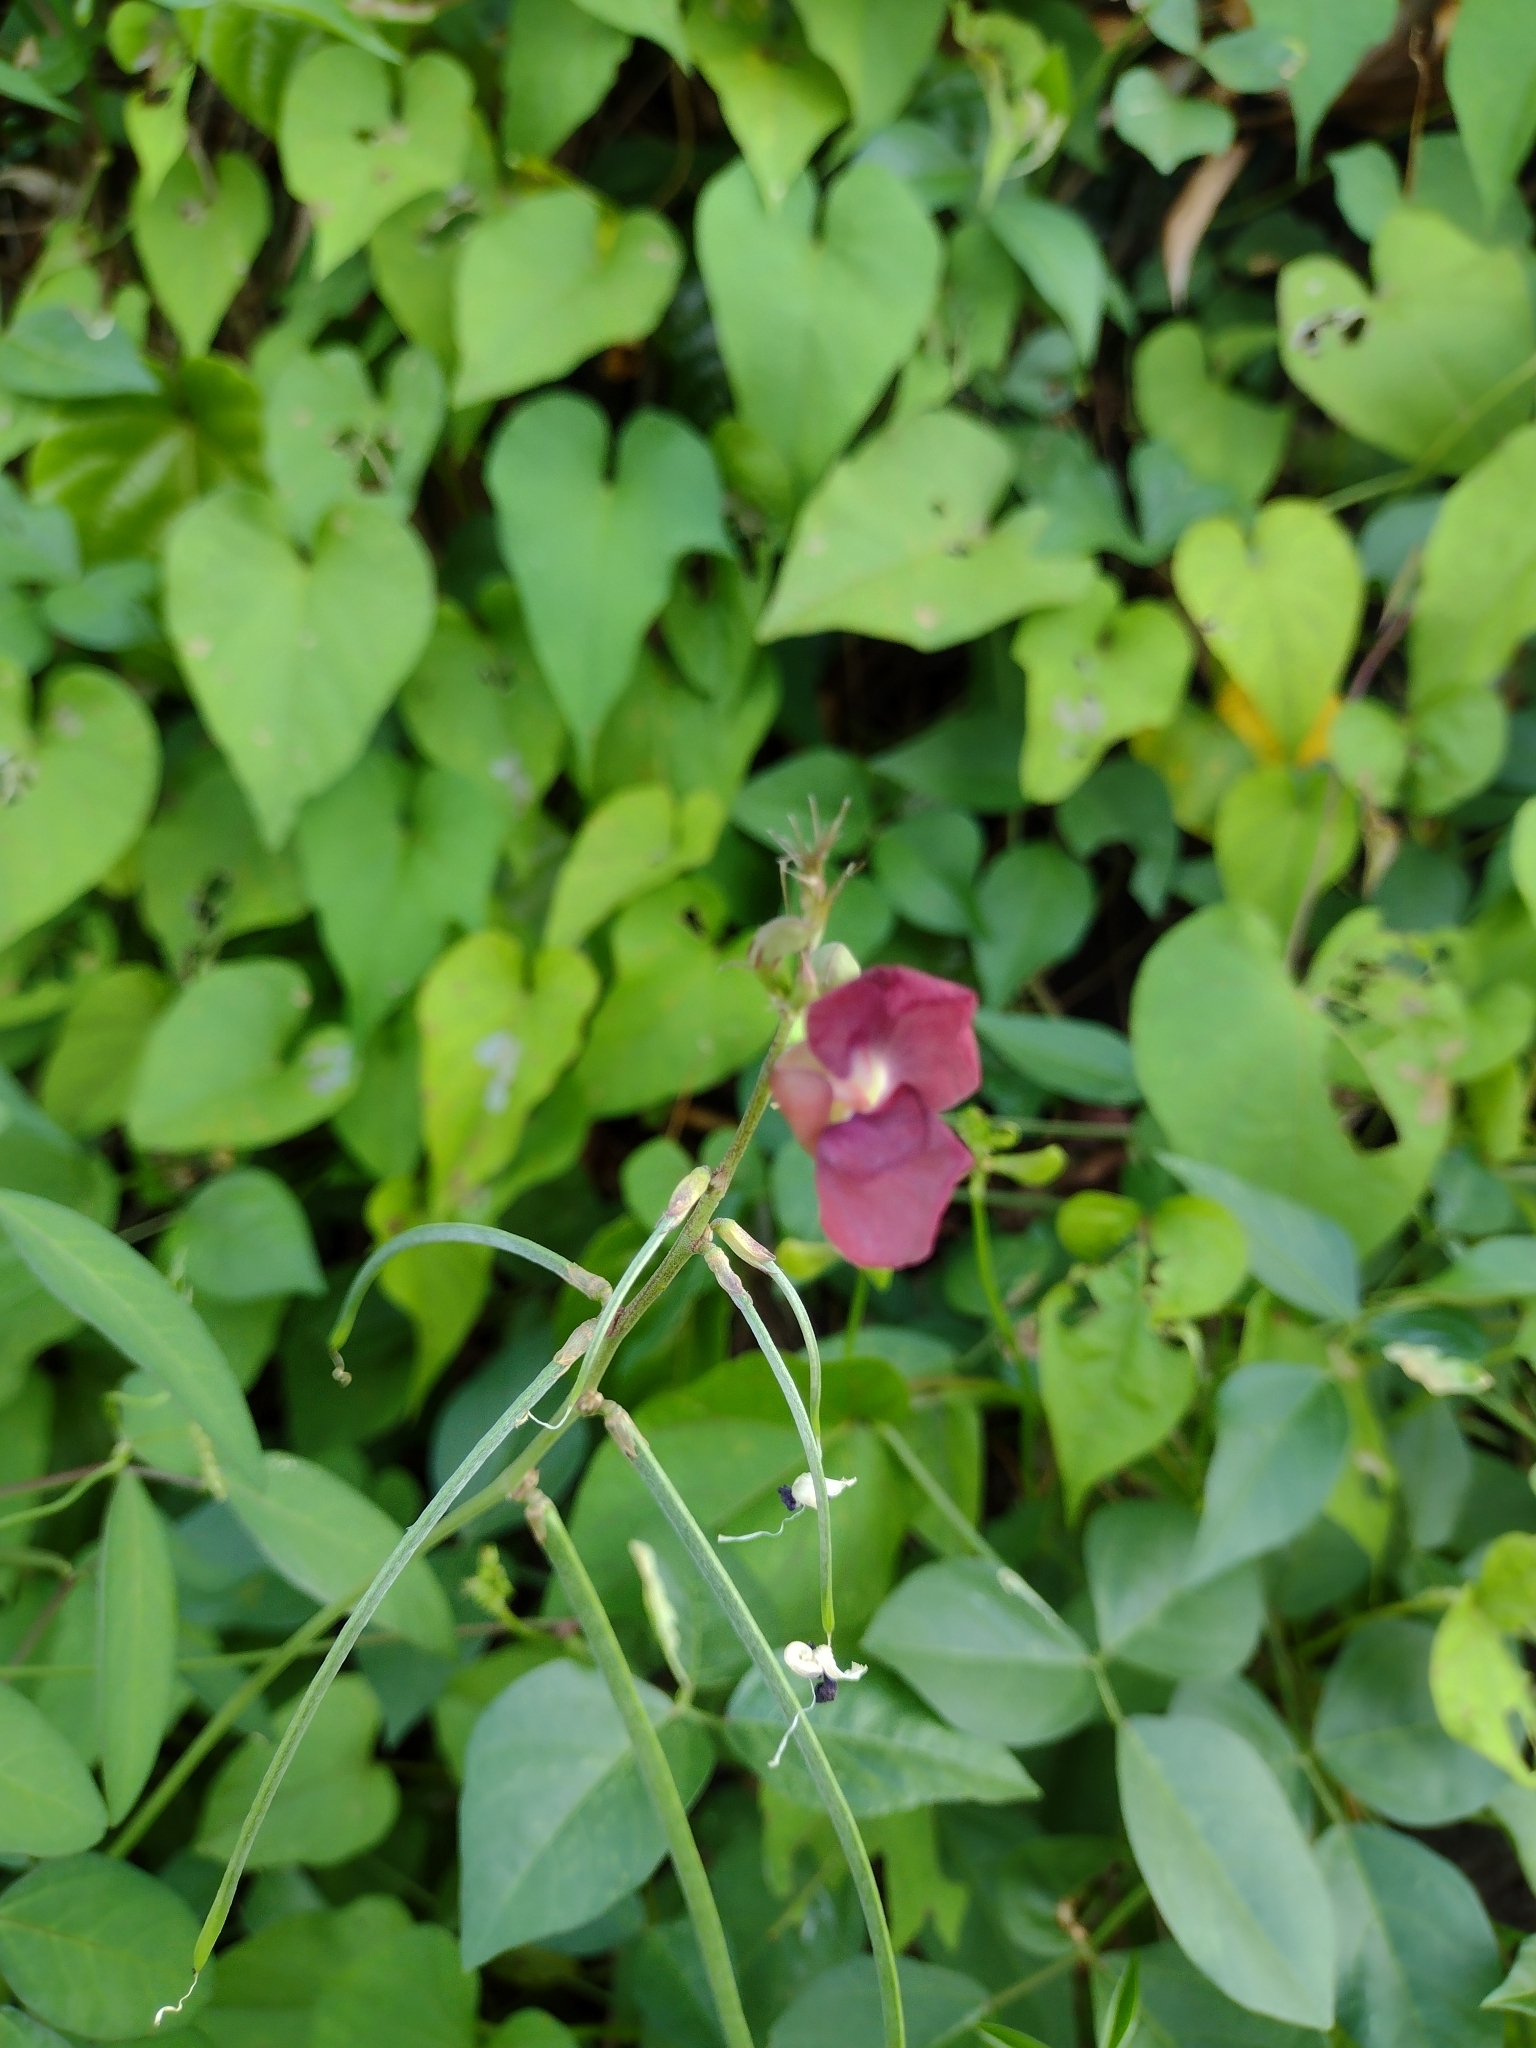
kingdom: Plantae
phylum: Tracheophyta
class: Magnoliopsida
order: Fabales
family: Fabaceae
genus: Macroptilium
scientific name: Macroptilium lathyroides
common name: Wild bushbean
